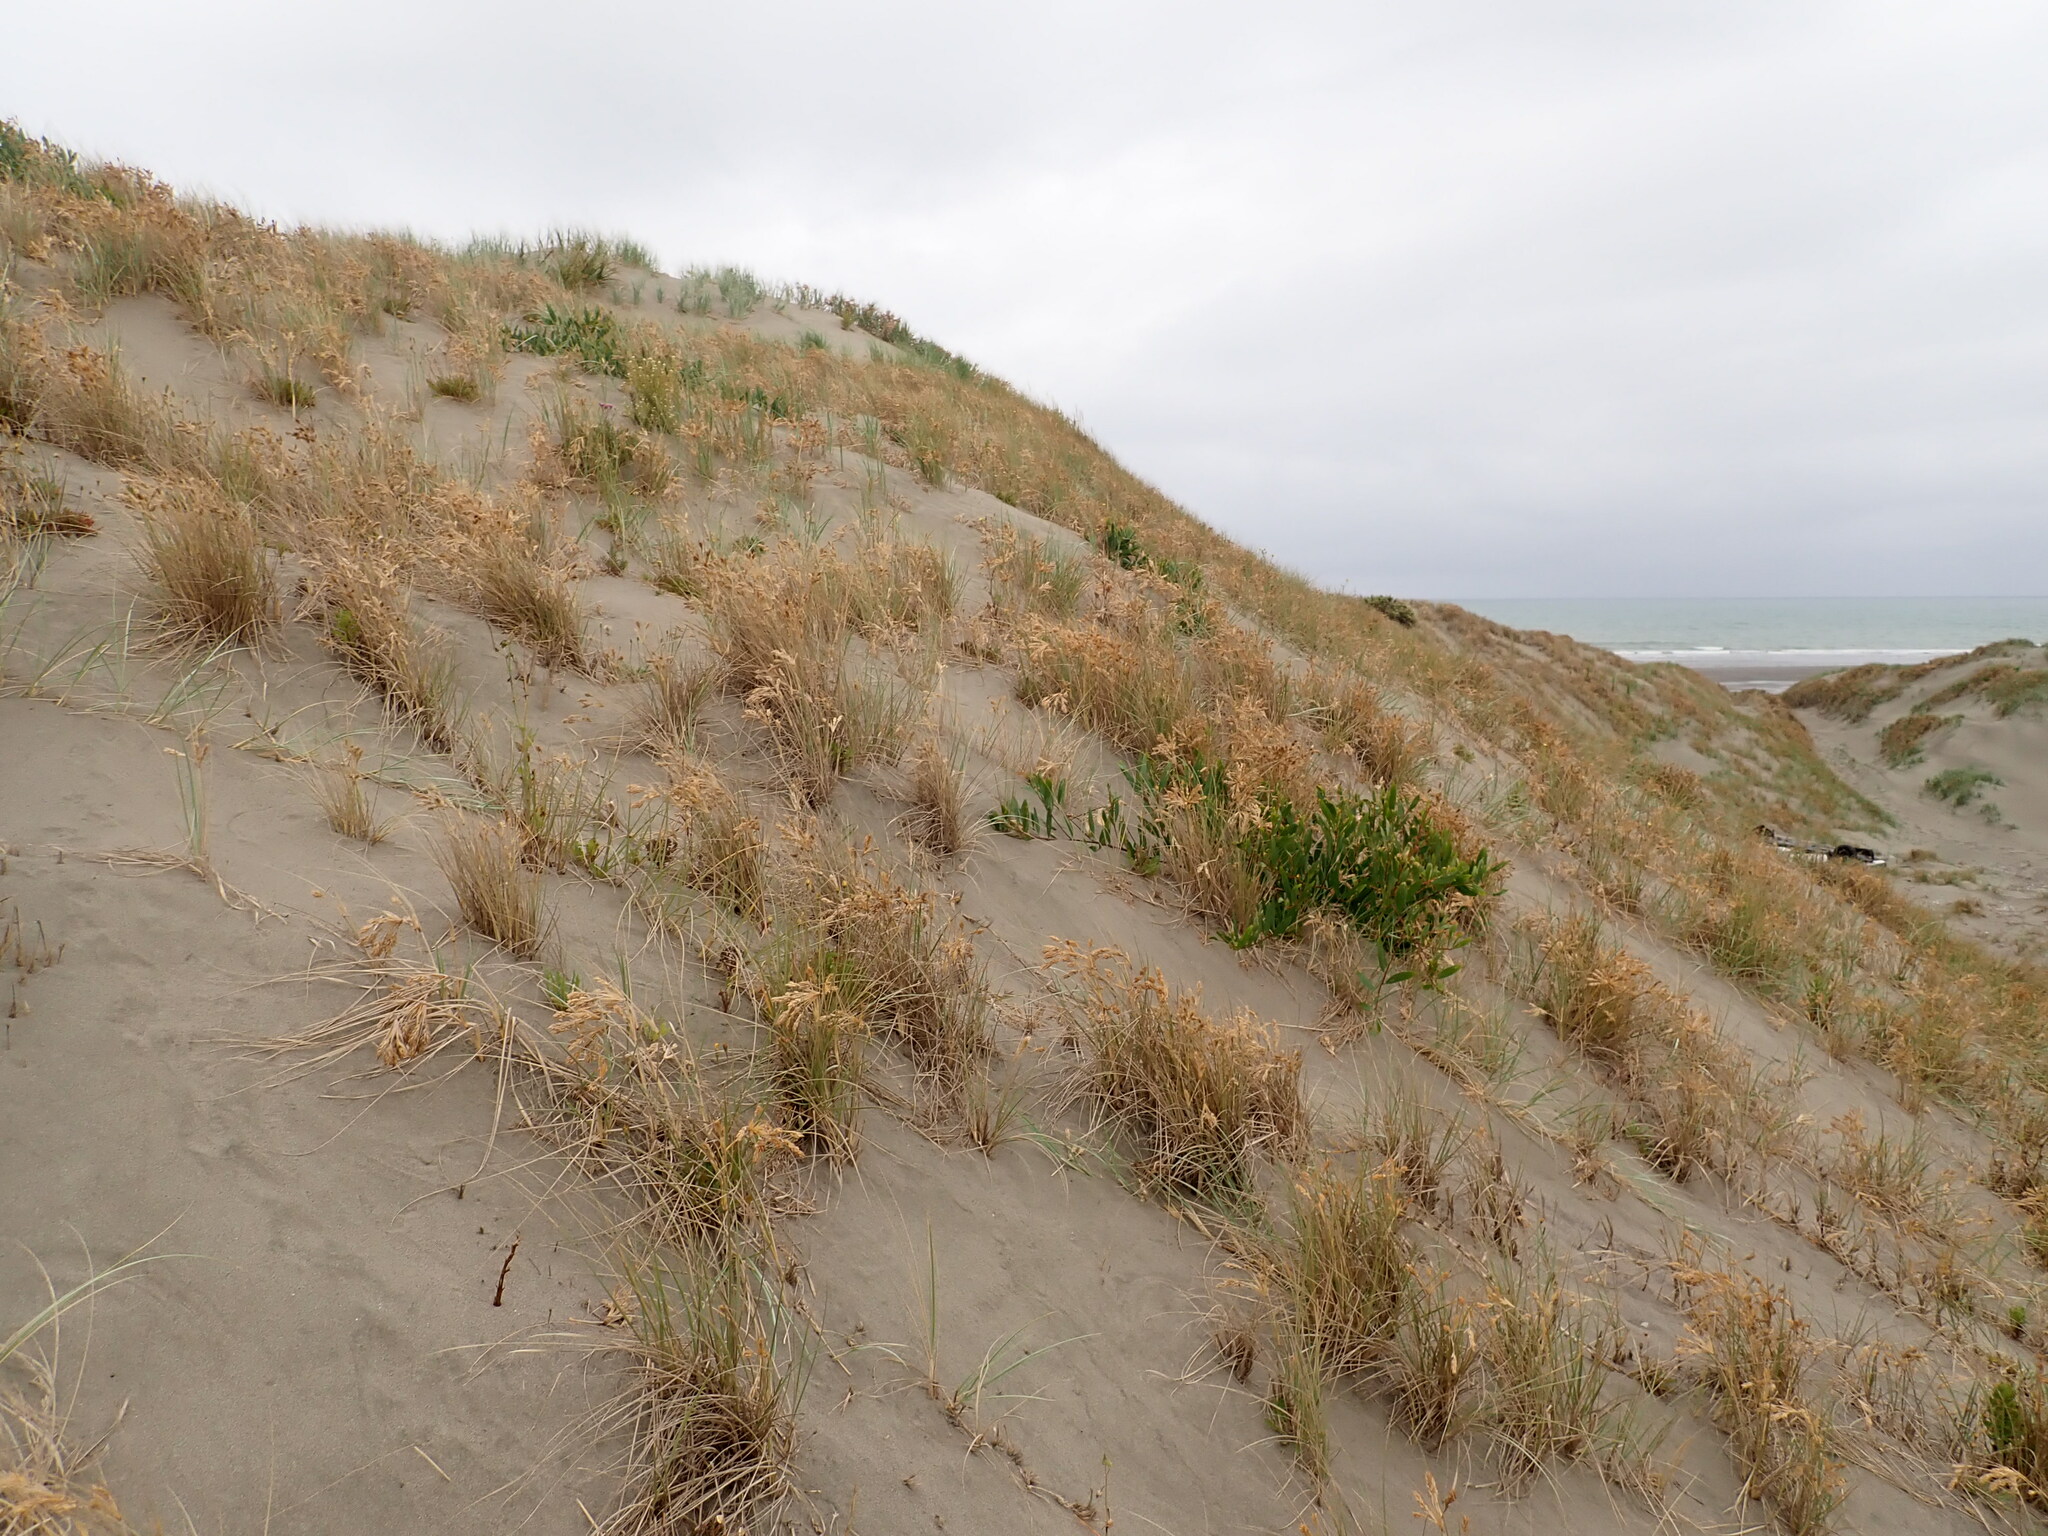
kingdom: Plantae
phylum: Tracheophyta
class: Magnoliopsida
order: Fabales
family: Fabaceae
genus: Acacia
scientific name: Acacia longifolia
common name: Sydney golden wattle
